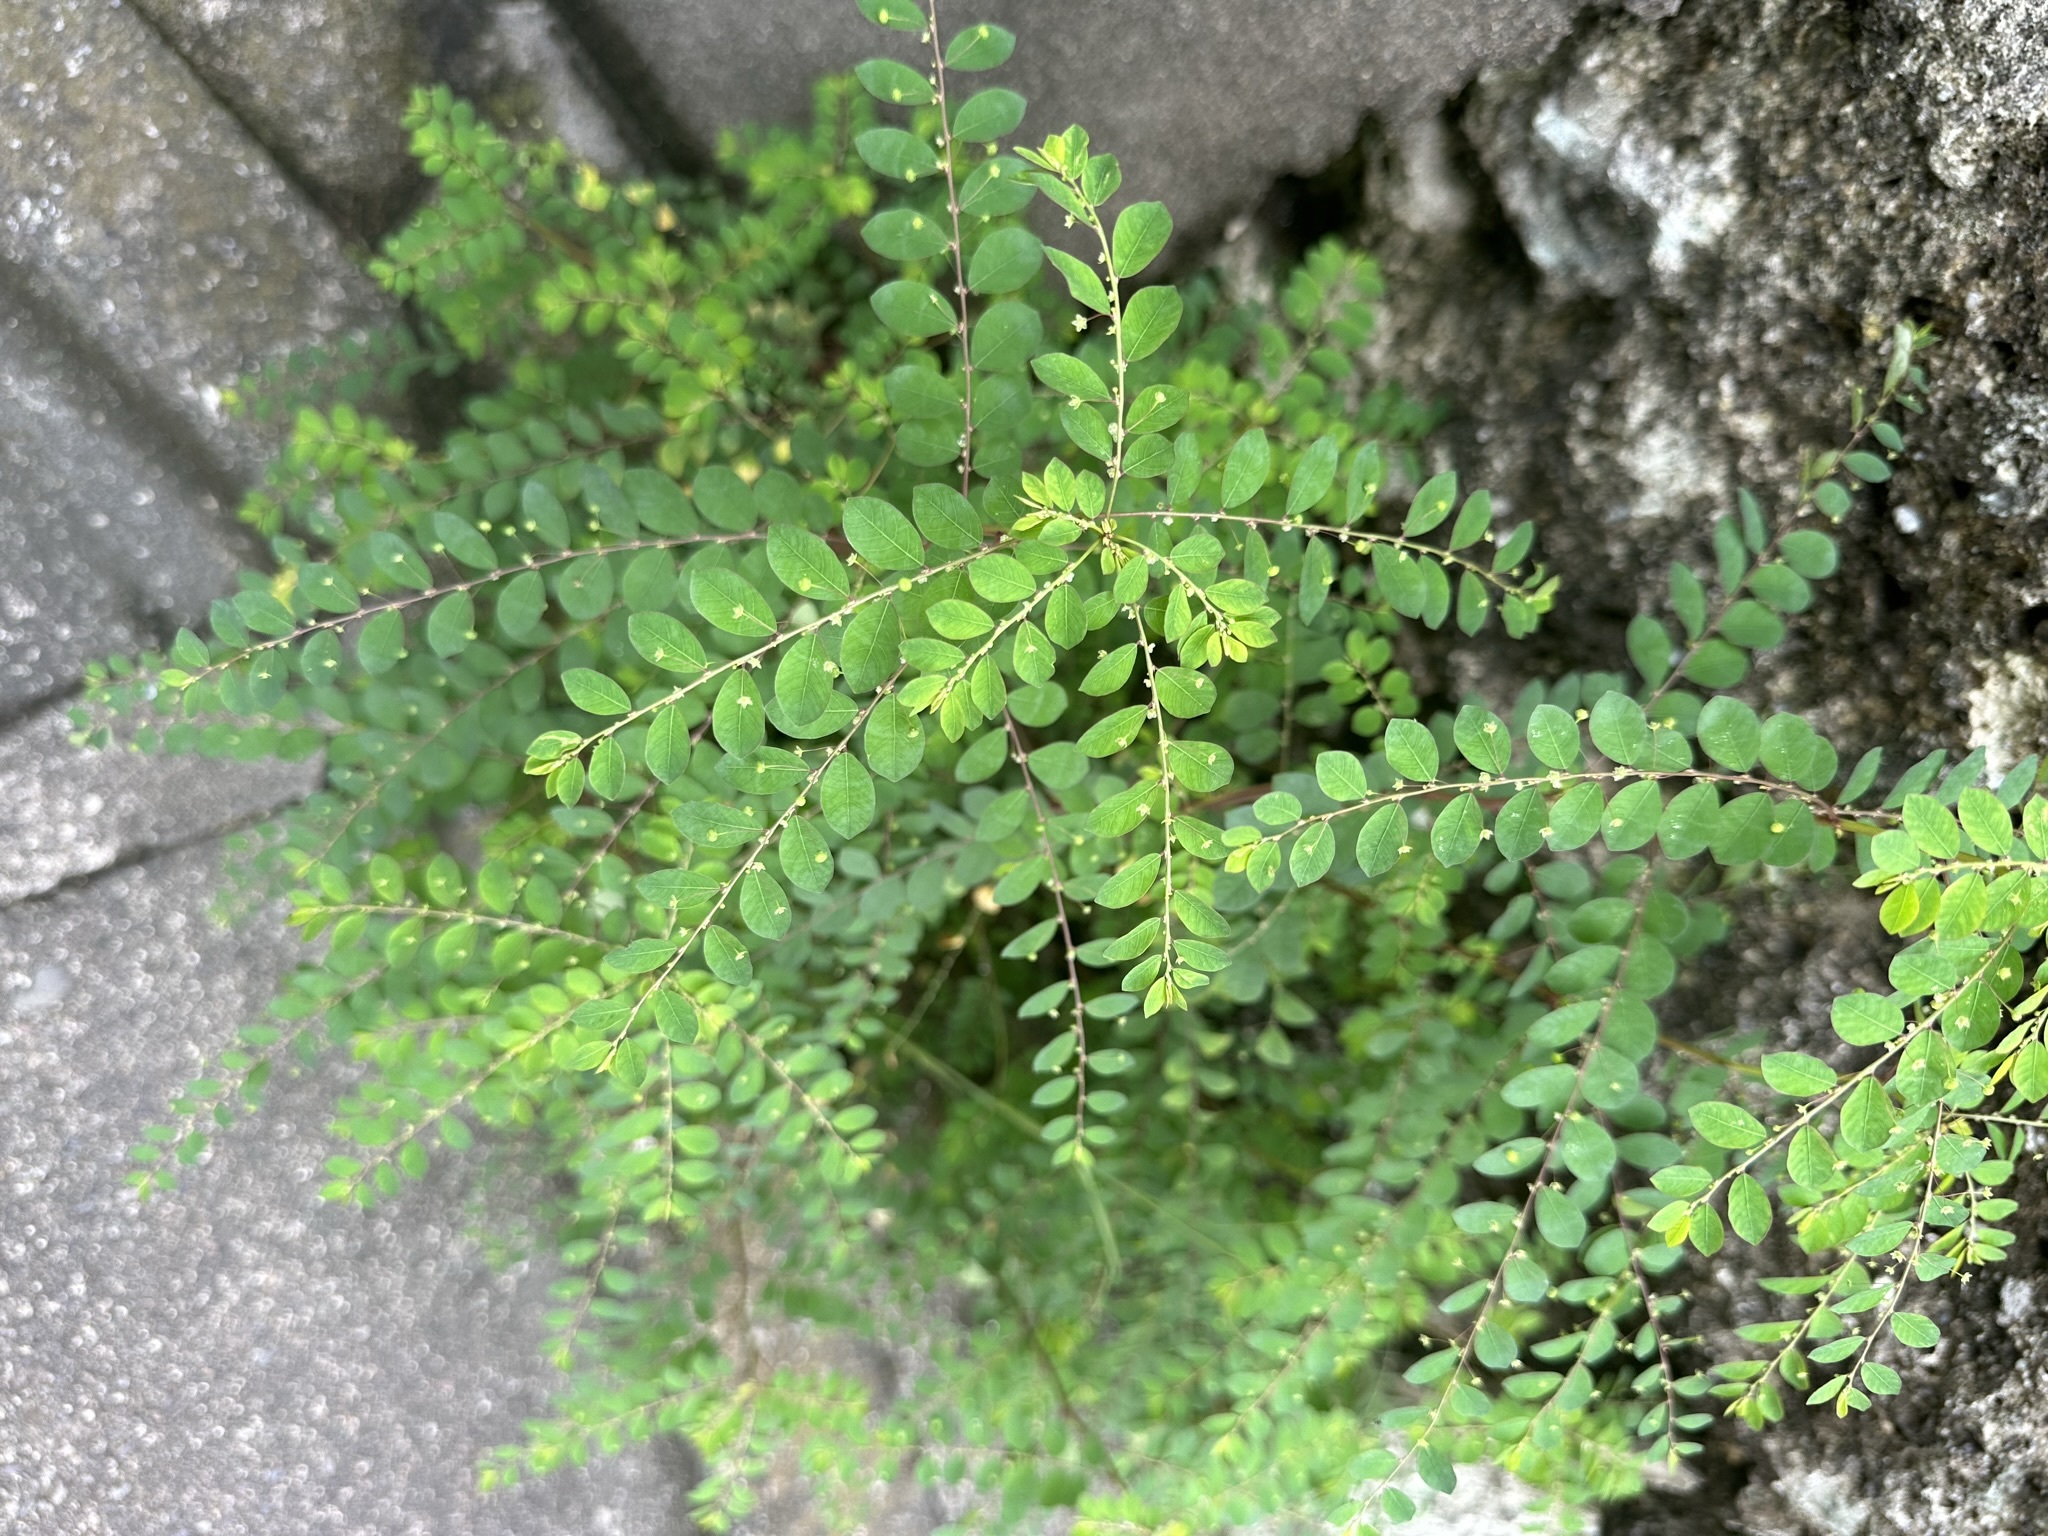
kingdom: Plantae
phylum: Tracheophyta
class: Magnoliopsida
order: Malpighiales
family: Phyllanthaceae
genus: Phyllanthus
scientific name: Phyllanthus tenellus
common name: Mascarene island leaf-flower
